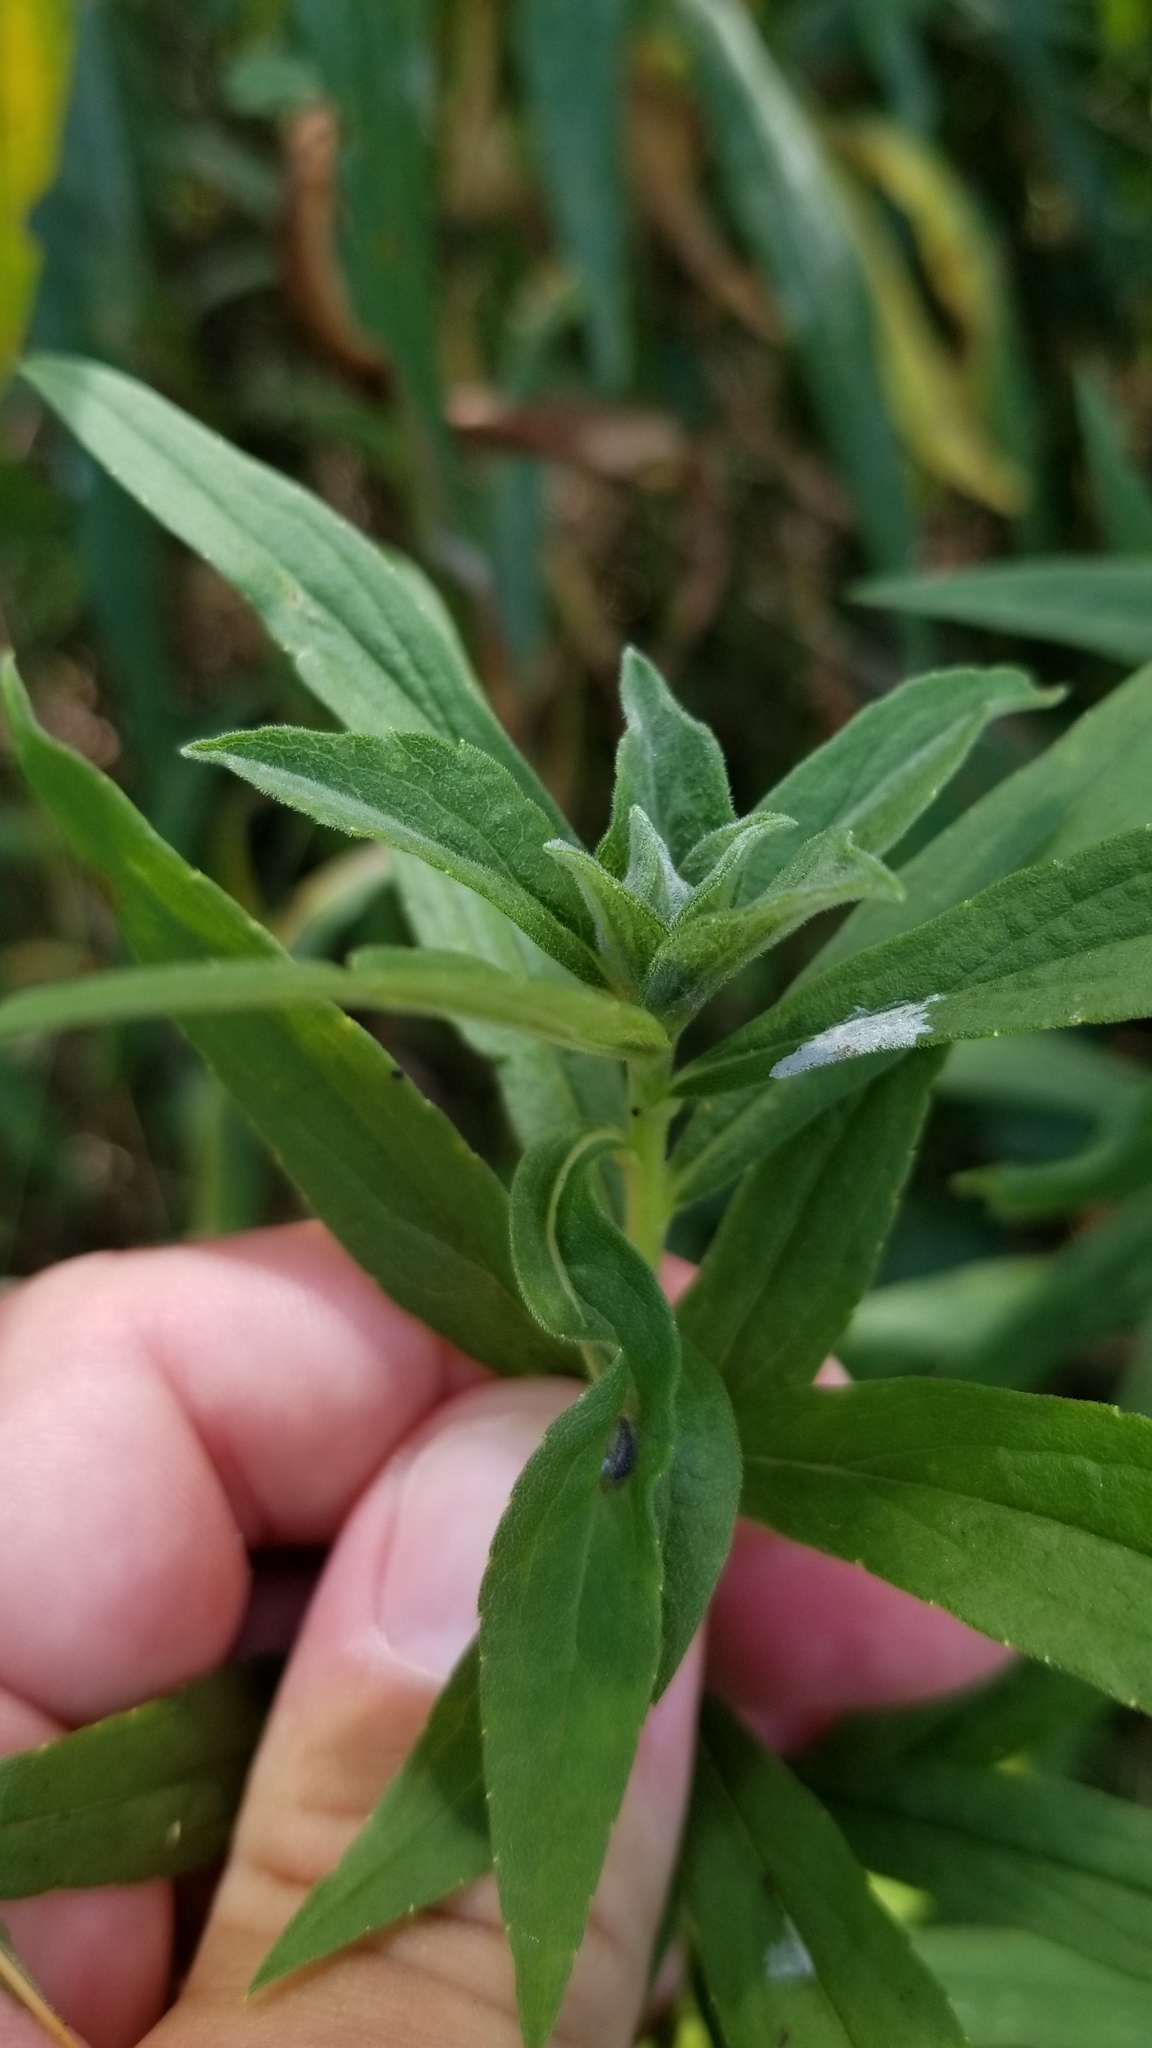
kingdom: Animalia
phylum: Arthropoda
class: Insecta
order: Diptera
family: Cecidomyiidae
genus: Asphondylia
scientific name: Asphondylia solidaginis
